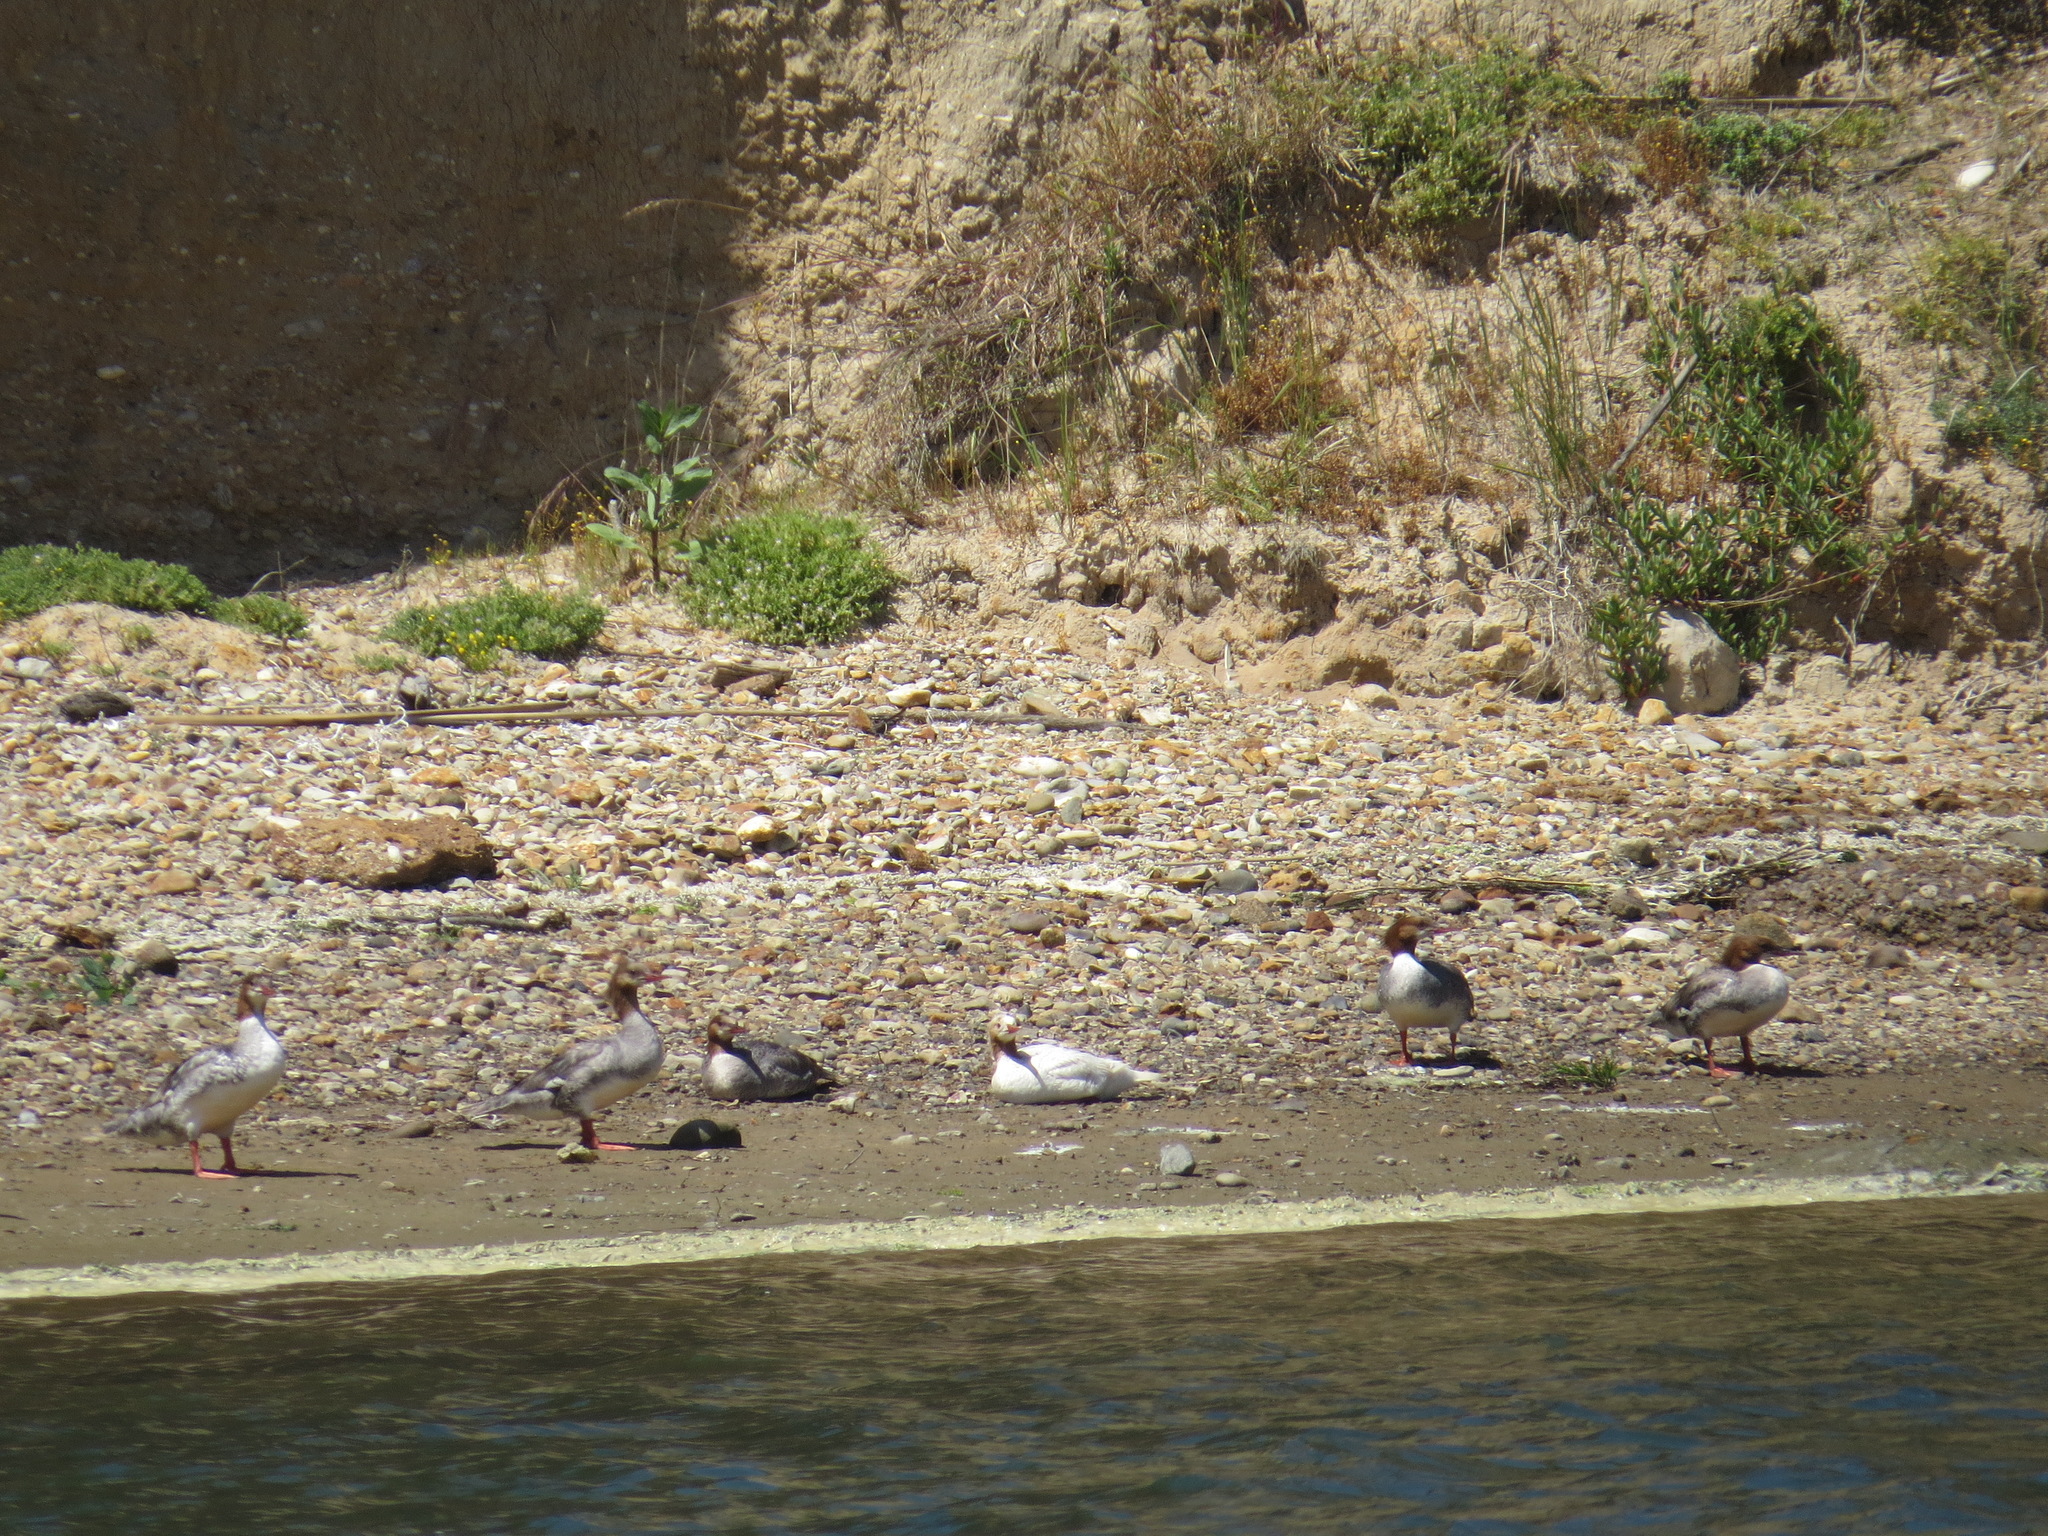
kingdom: Animalia
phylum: Chordata
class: Aves
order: Anseriformes
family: Anatidae
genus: Mergus
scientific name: Mergus merganser
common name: Common merganser
